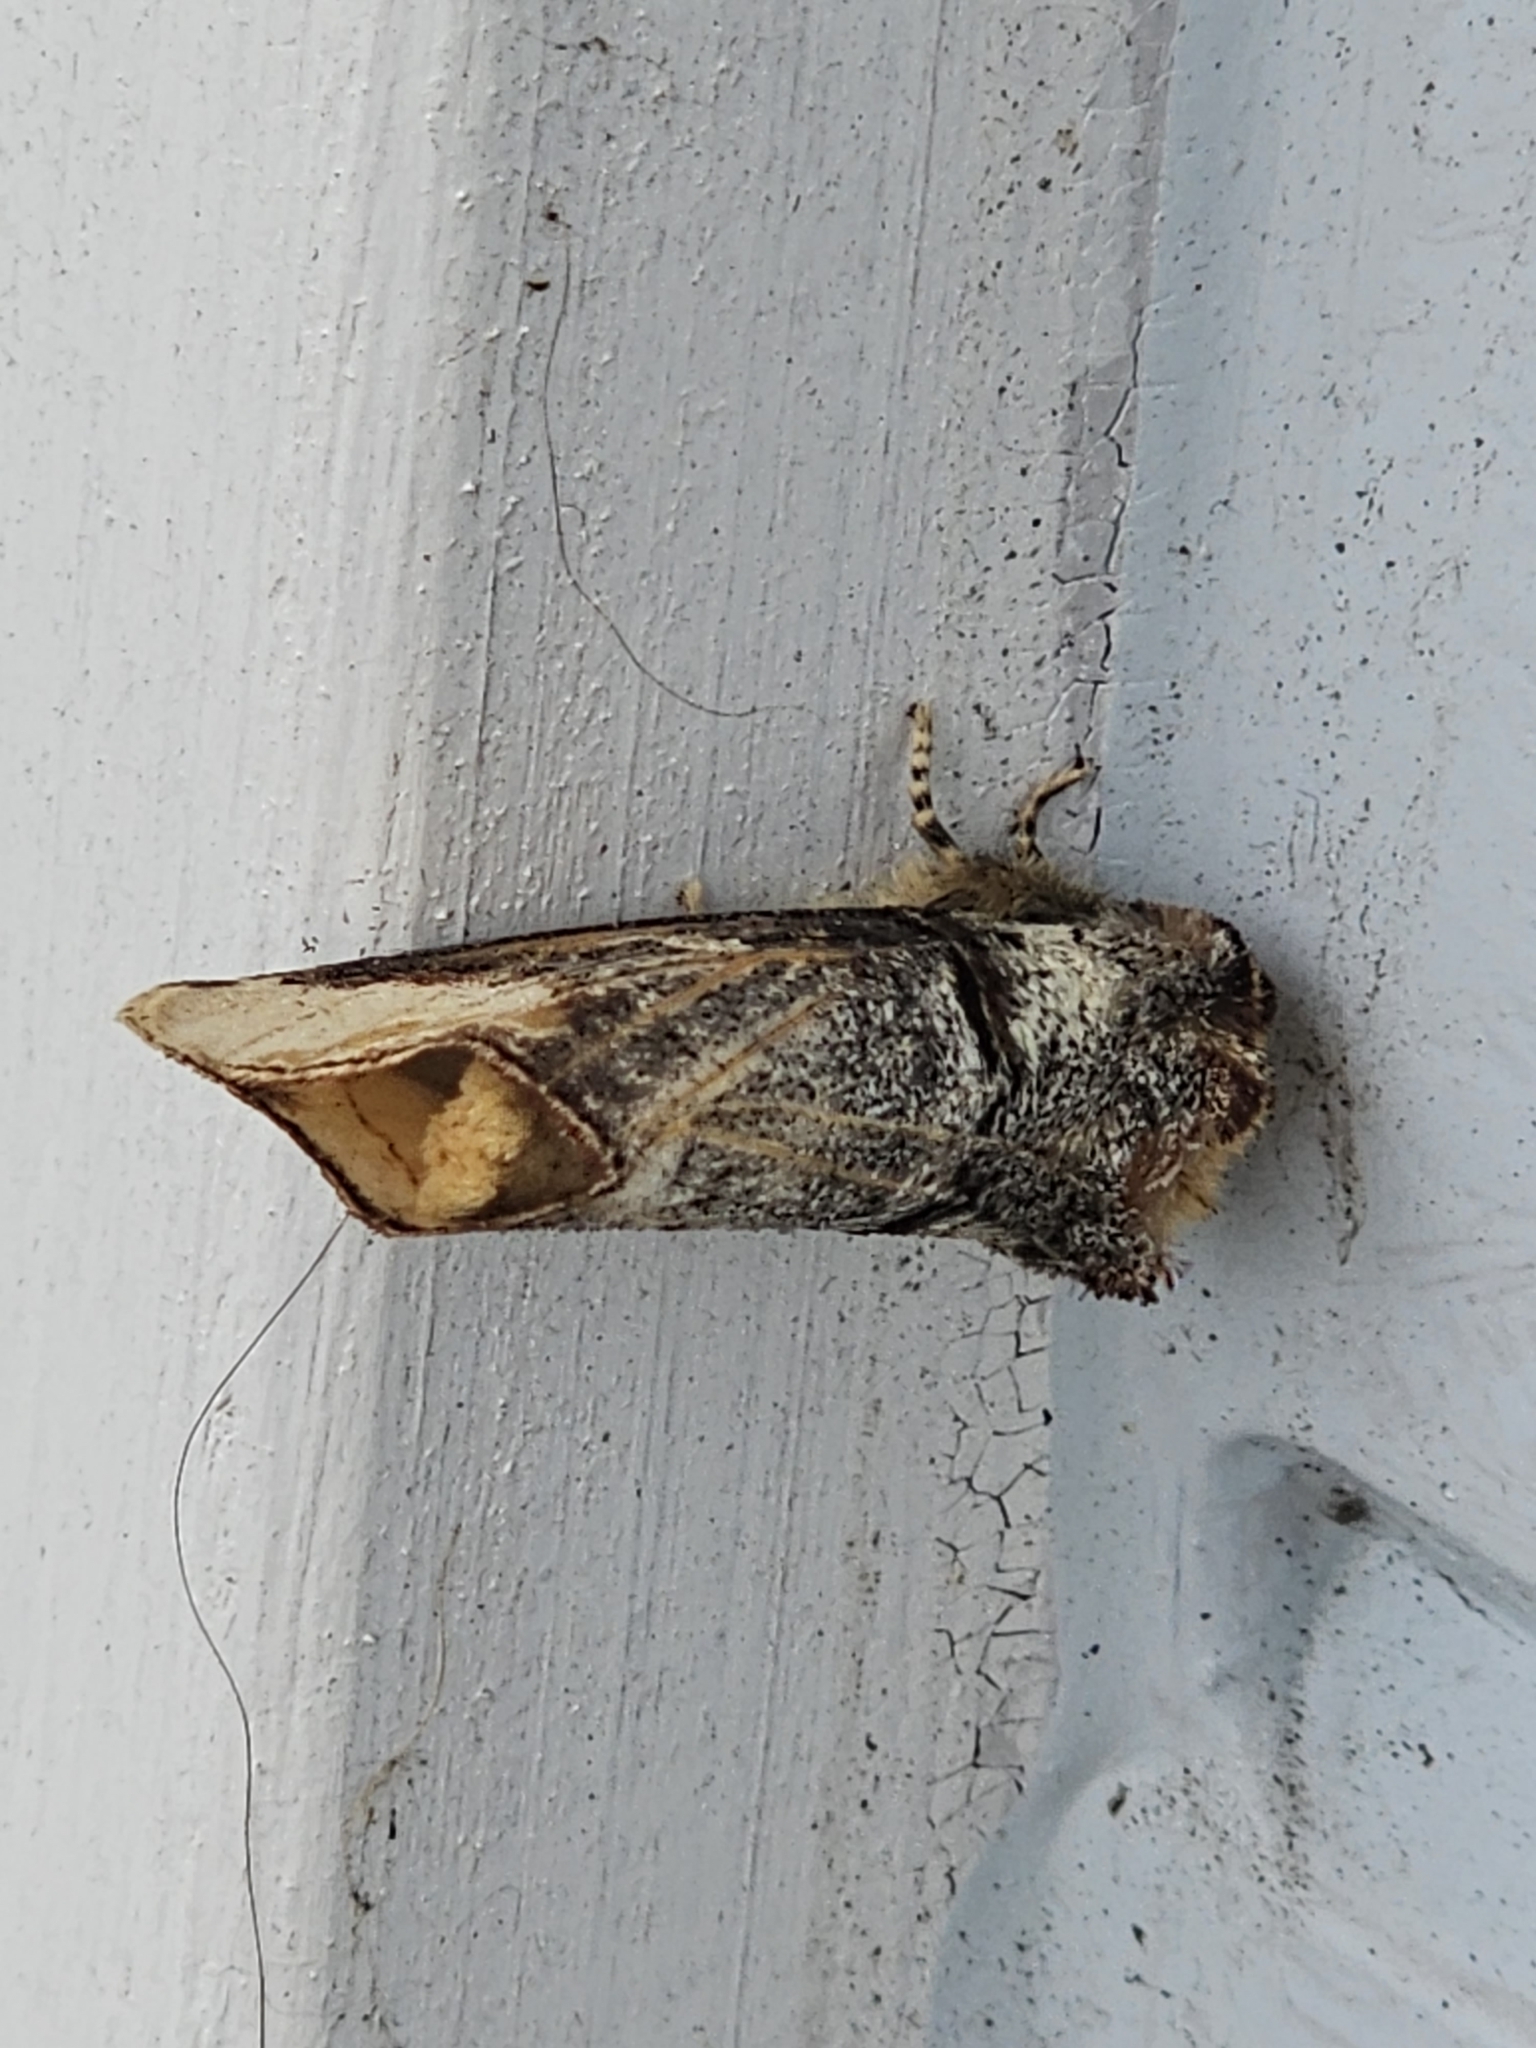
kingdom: Animalia
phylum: Arthropoda
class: Insecta
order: Lepidoptera
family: Notodontidae
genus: Phalera
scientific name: Phalera bucephala
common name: Buff-tip
